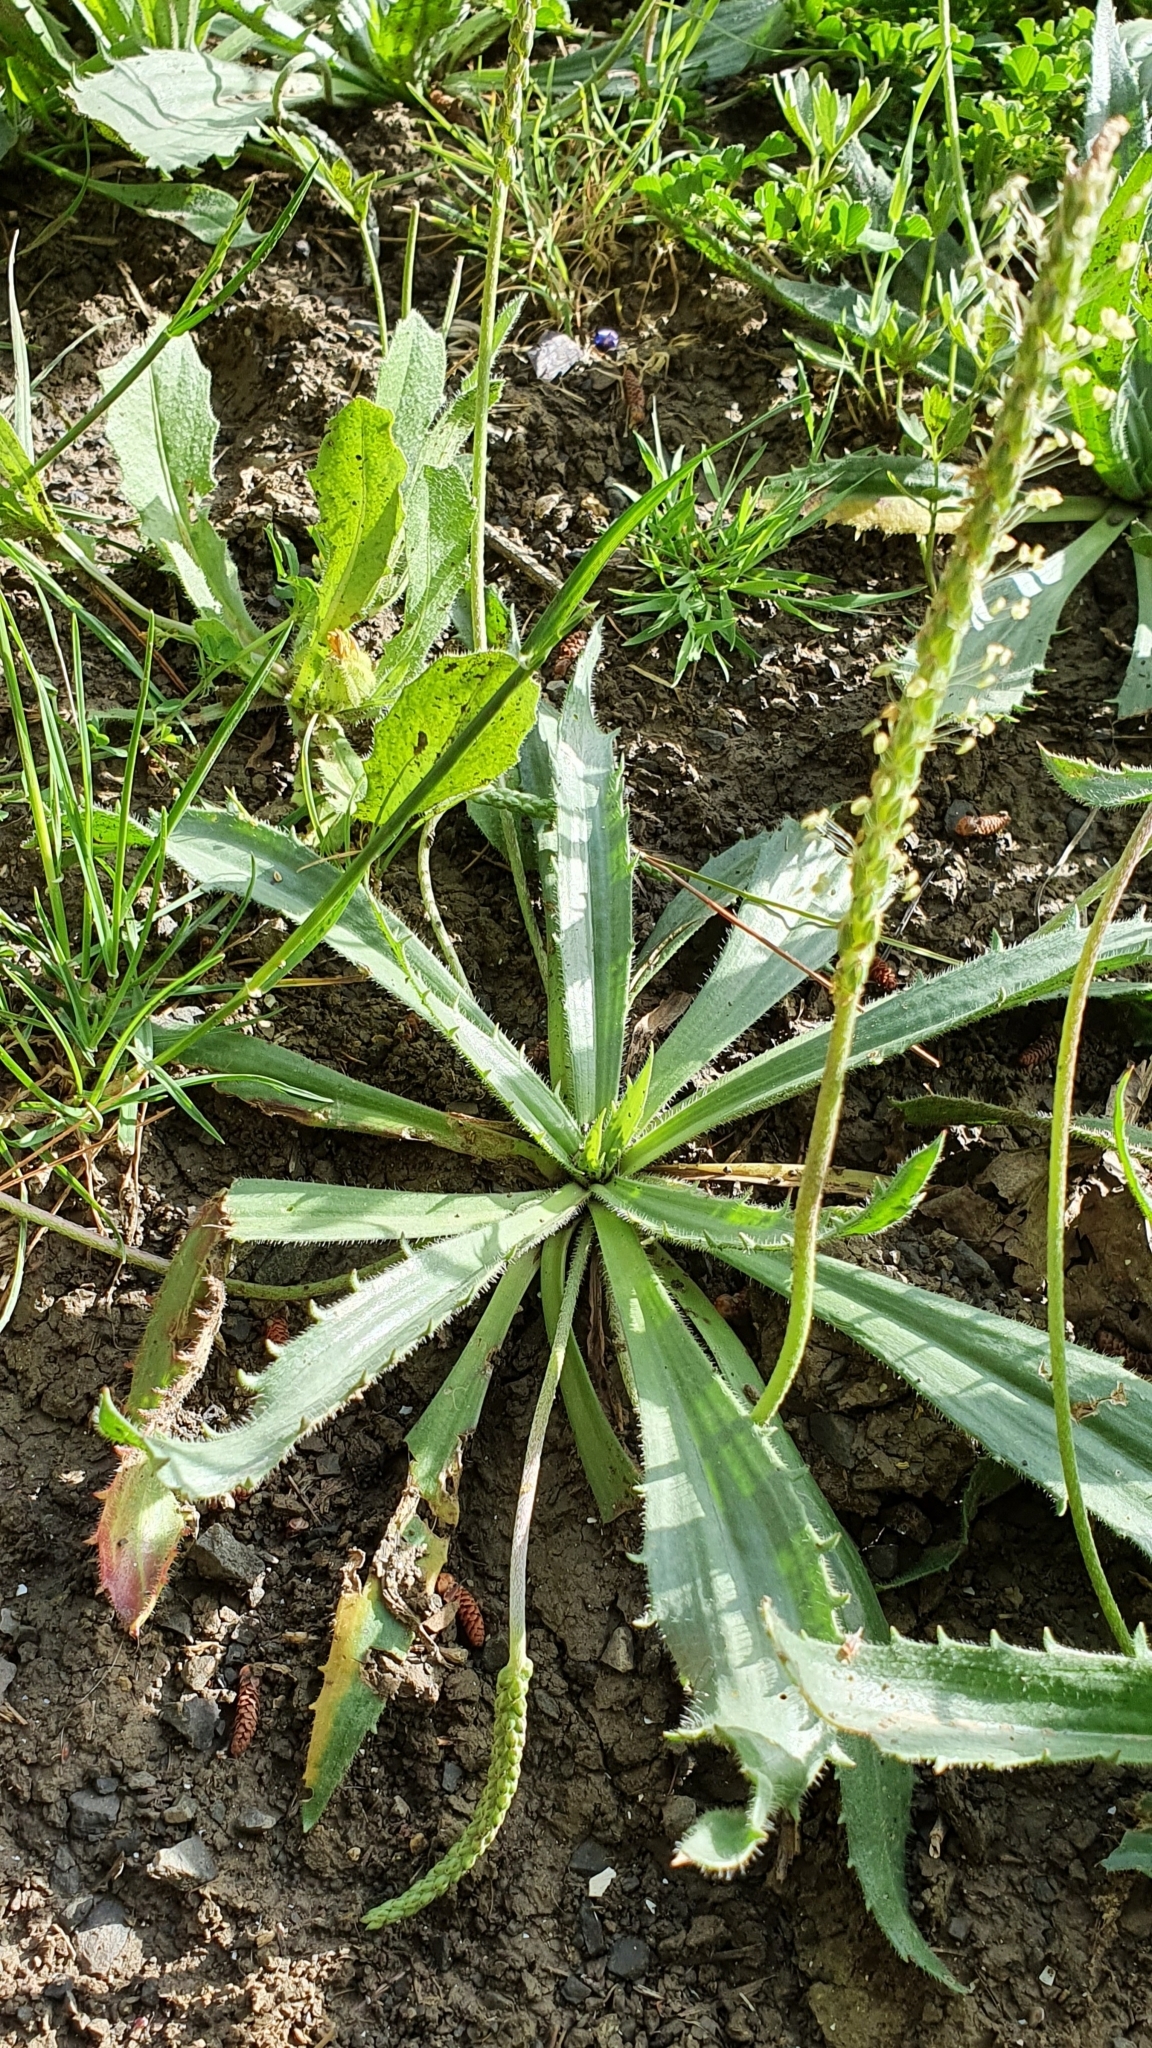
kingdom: Plantae
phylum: Tracheophyta
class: Magnoliopsida
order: Lamiales
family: Plantaginaceae
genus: Plantago
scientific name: Plantago serraria
